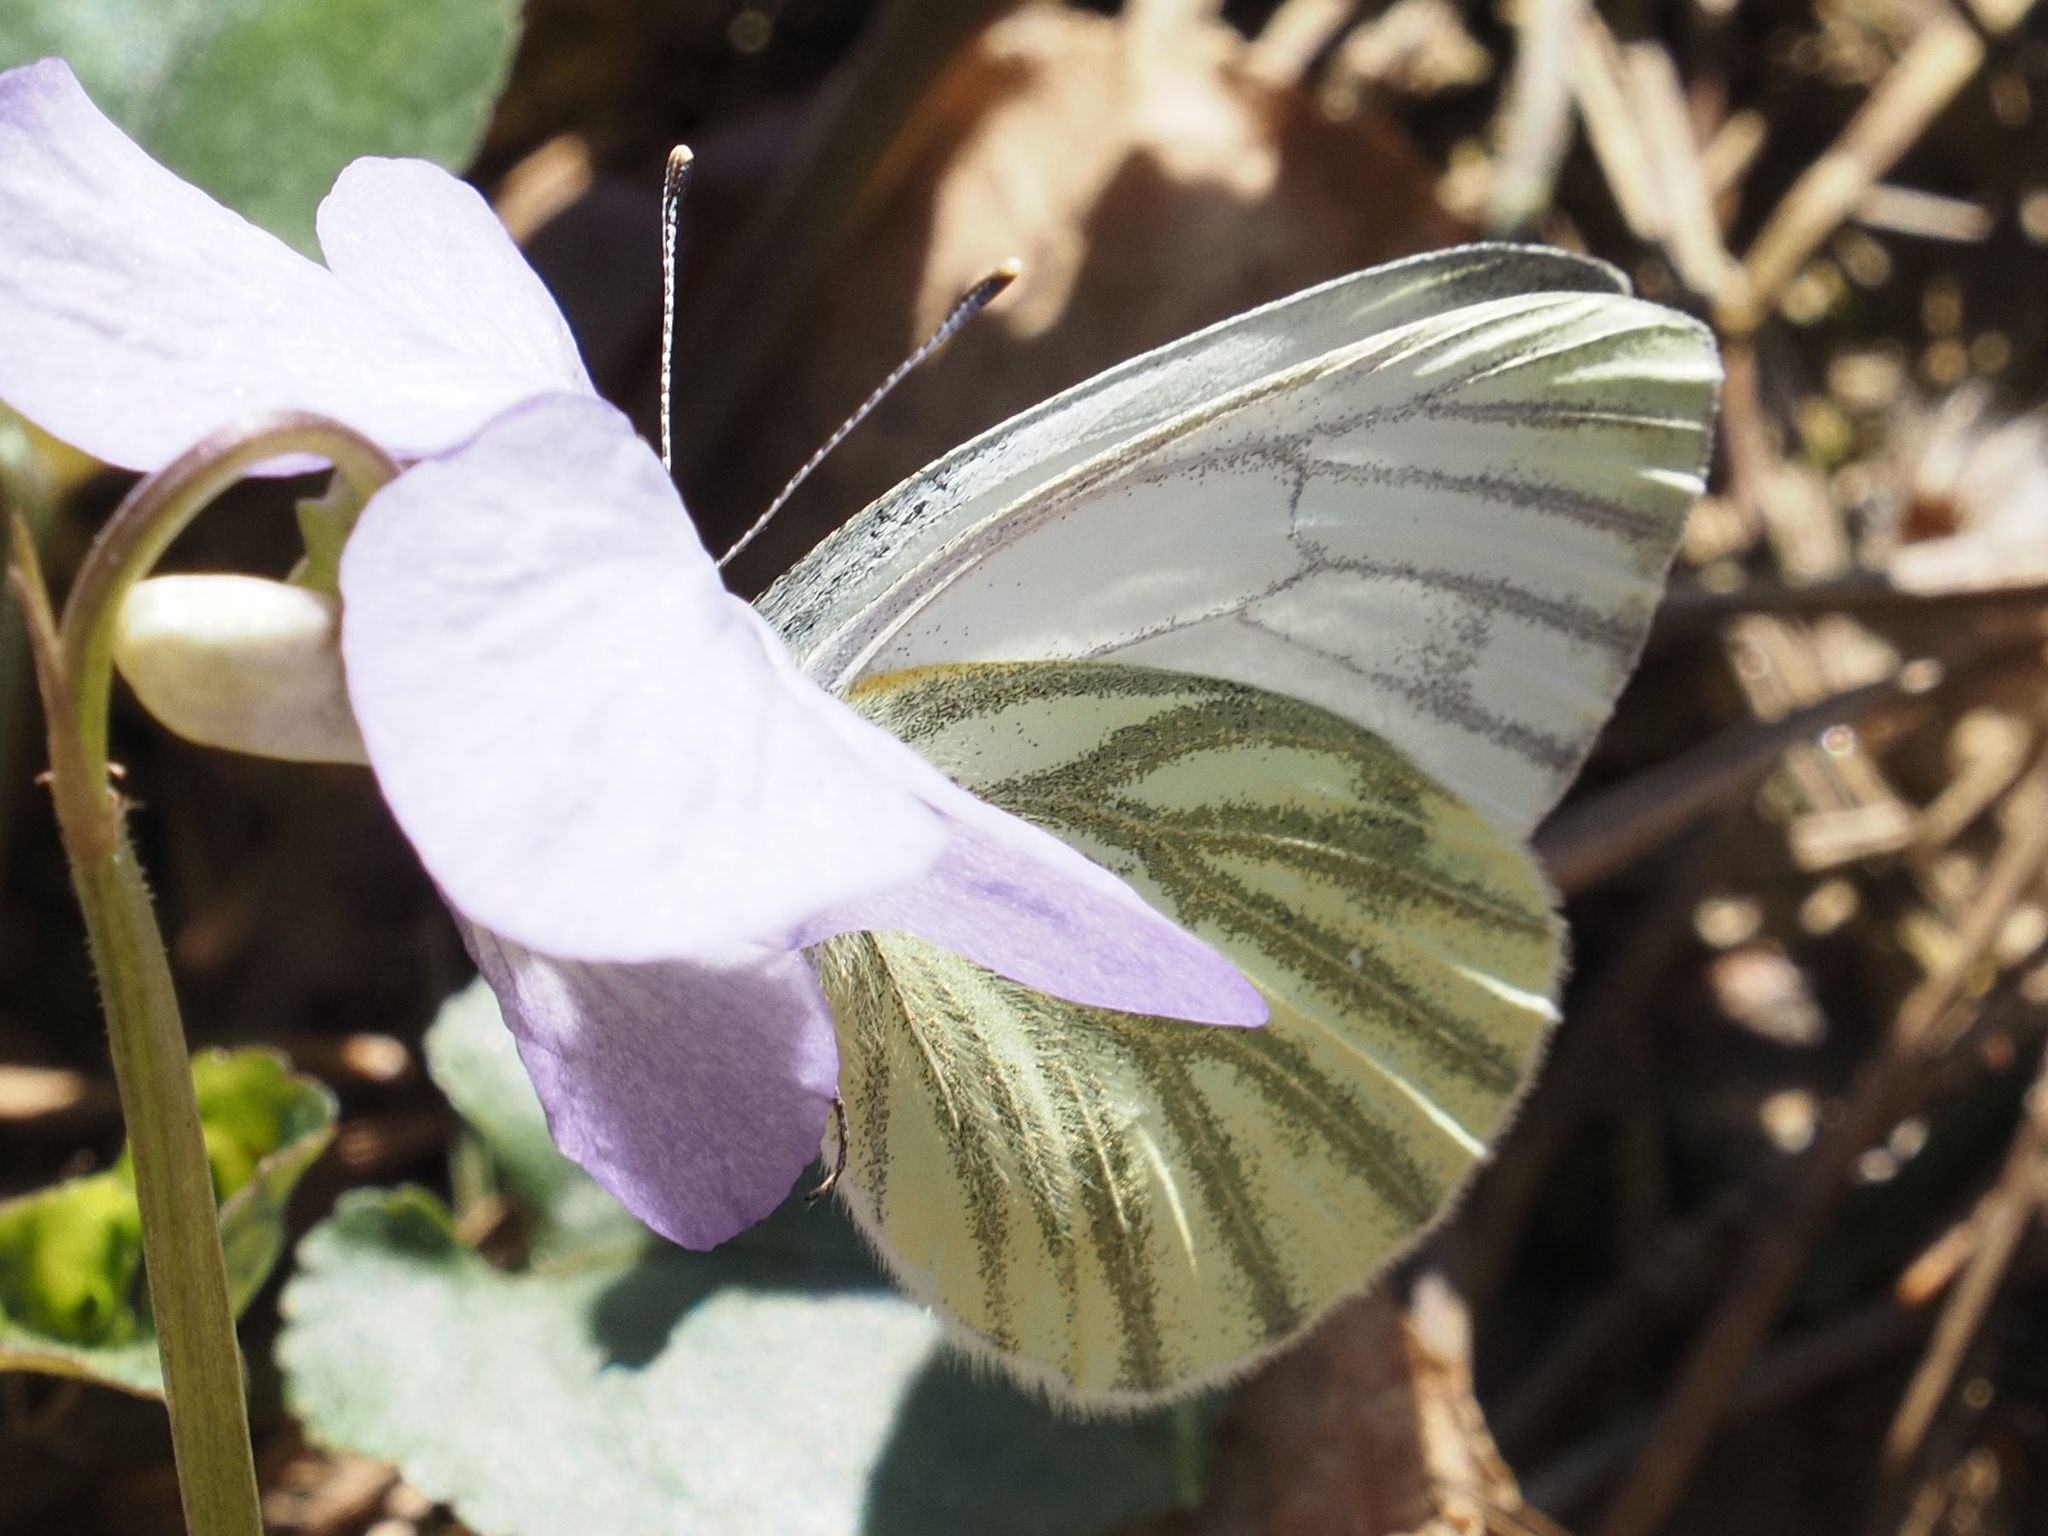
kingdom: Animalia
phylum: Arthropoda
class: Insecta
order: Lepidoptera
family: Pieridae
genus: Pieris
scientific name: Pieris napi
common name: Green-veined white
